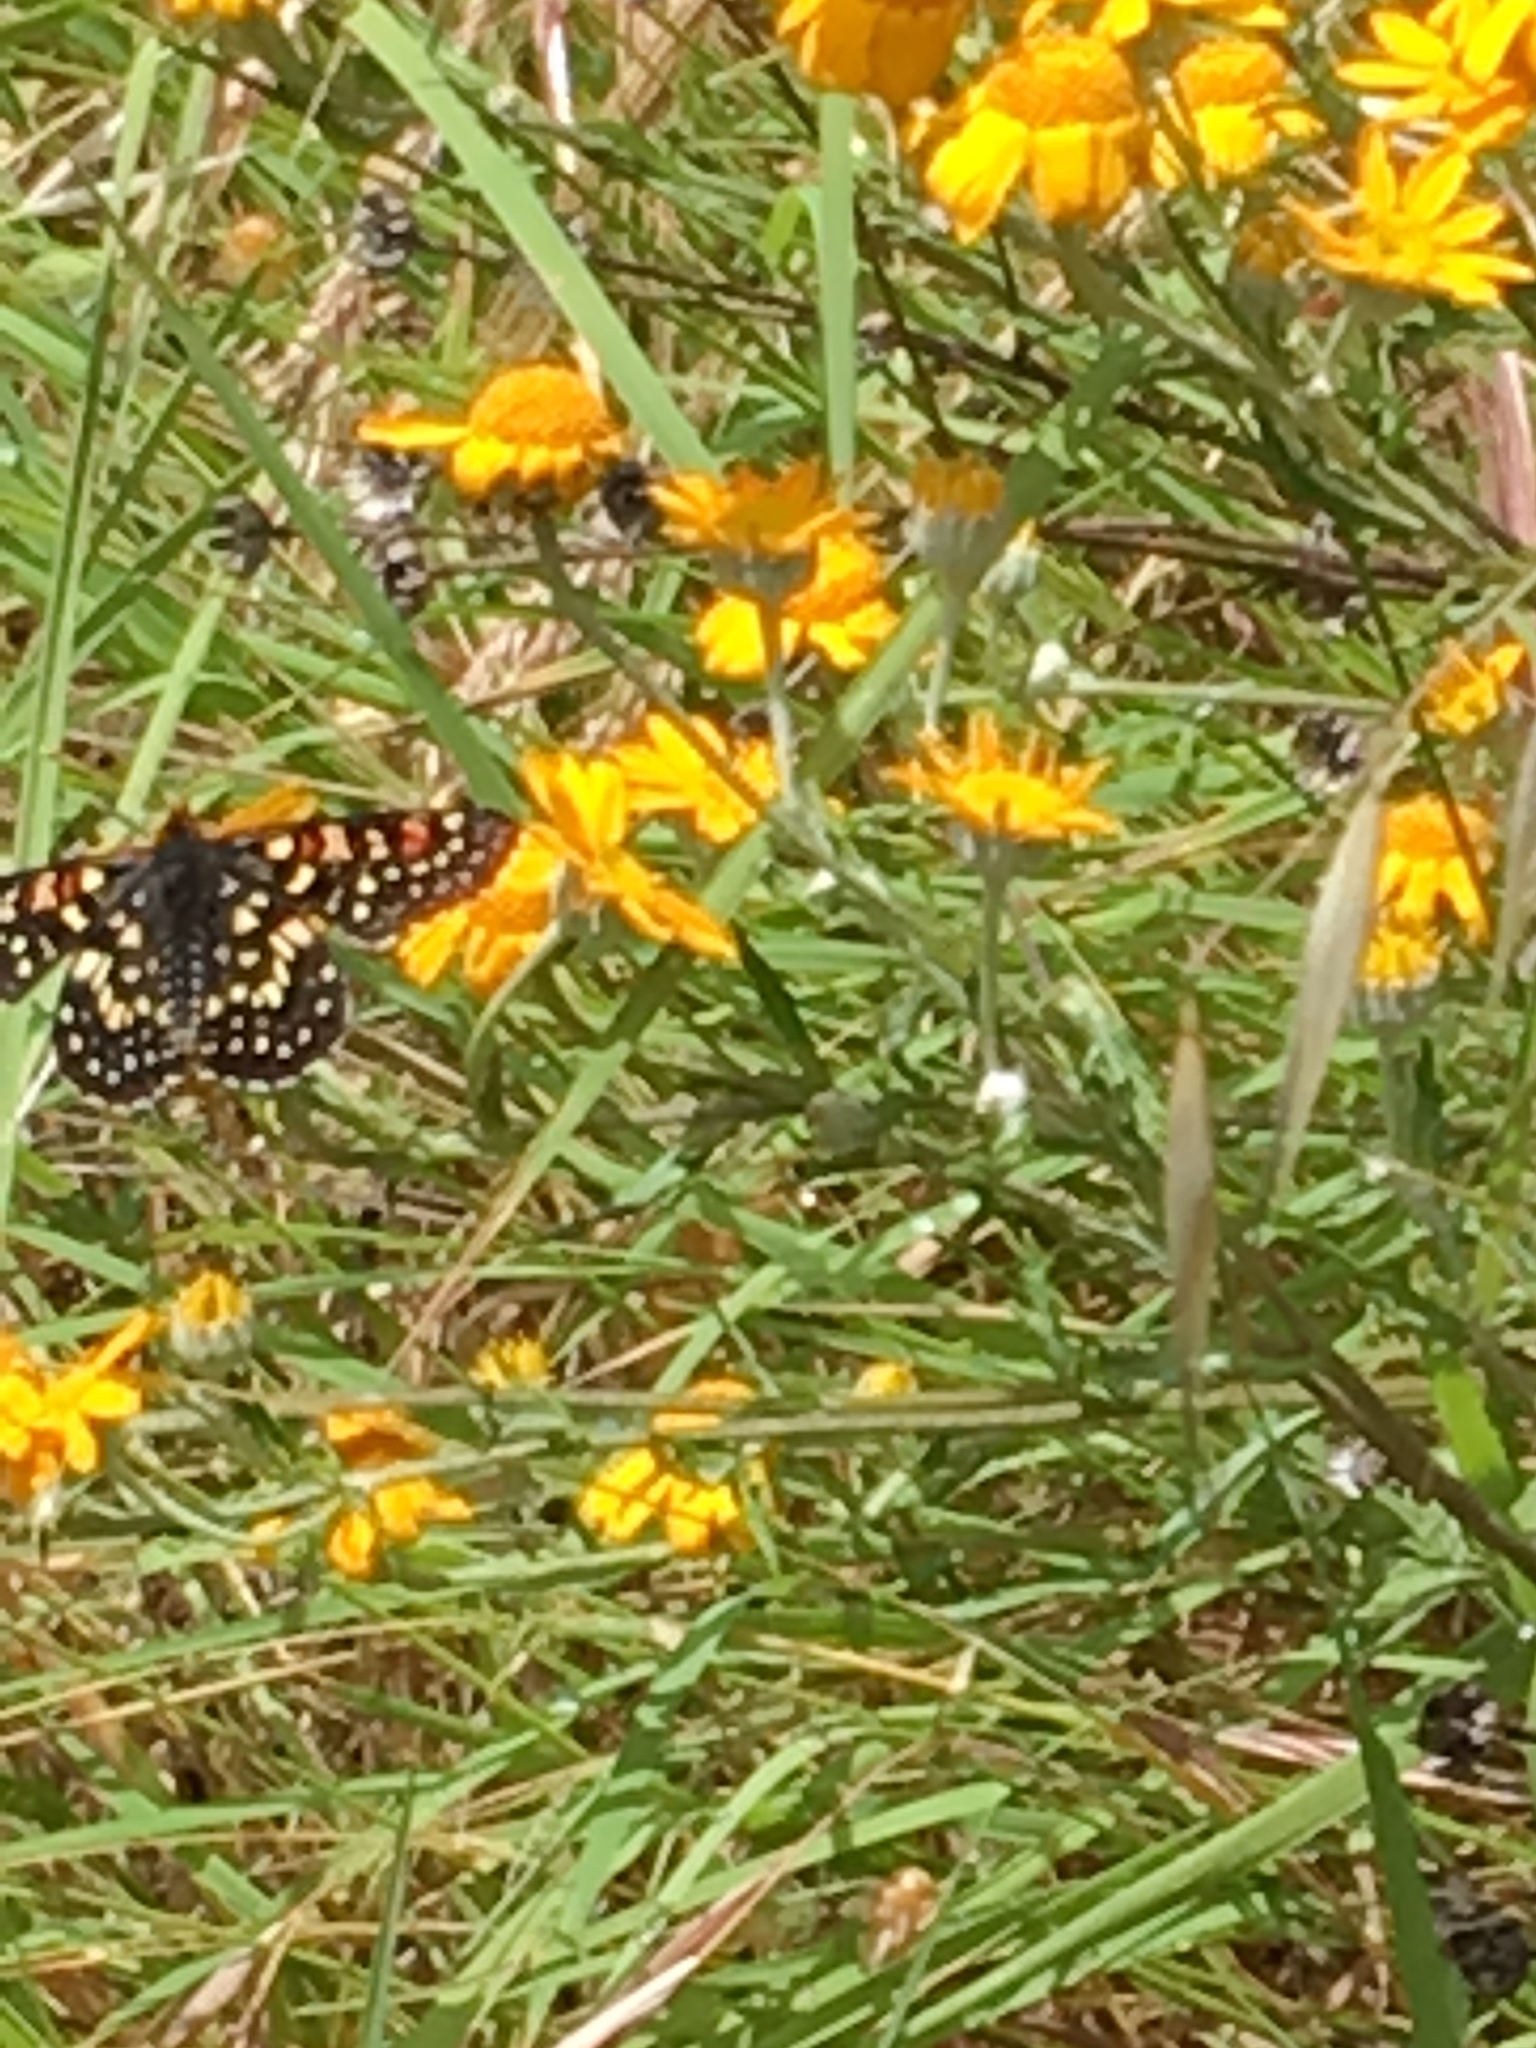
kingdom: Animalia
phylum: Arthropoda
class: Insecta
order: Lepidoptera
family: Nymphalidae
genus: Occidryas
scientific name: Occidryas chalcedona
